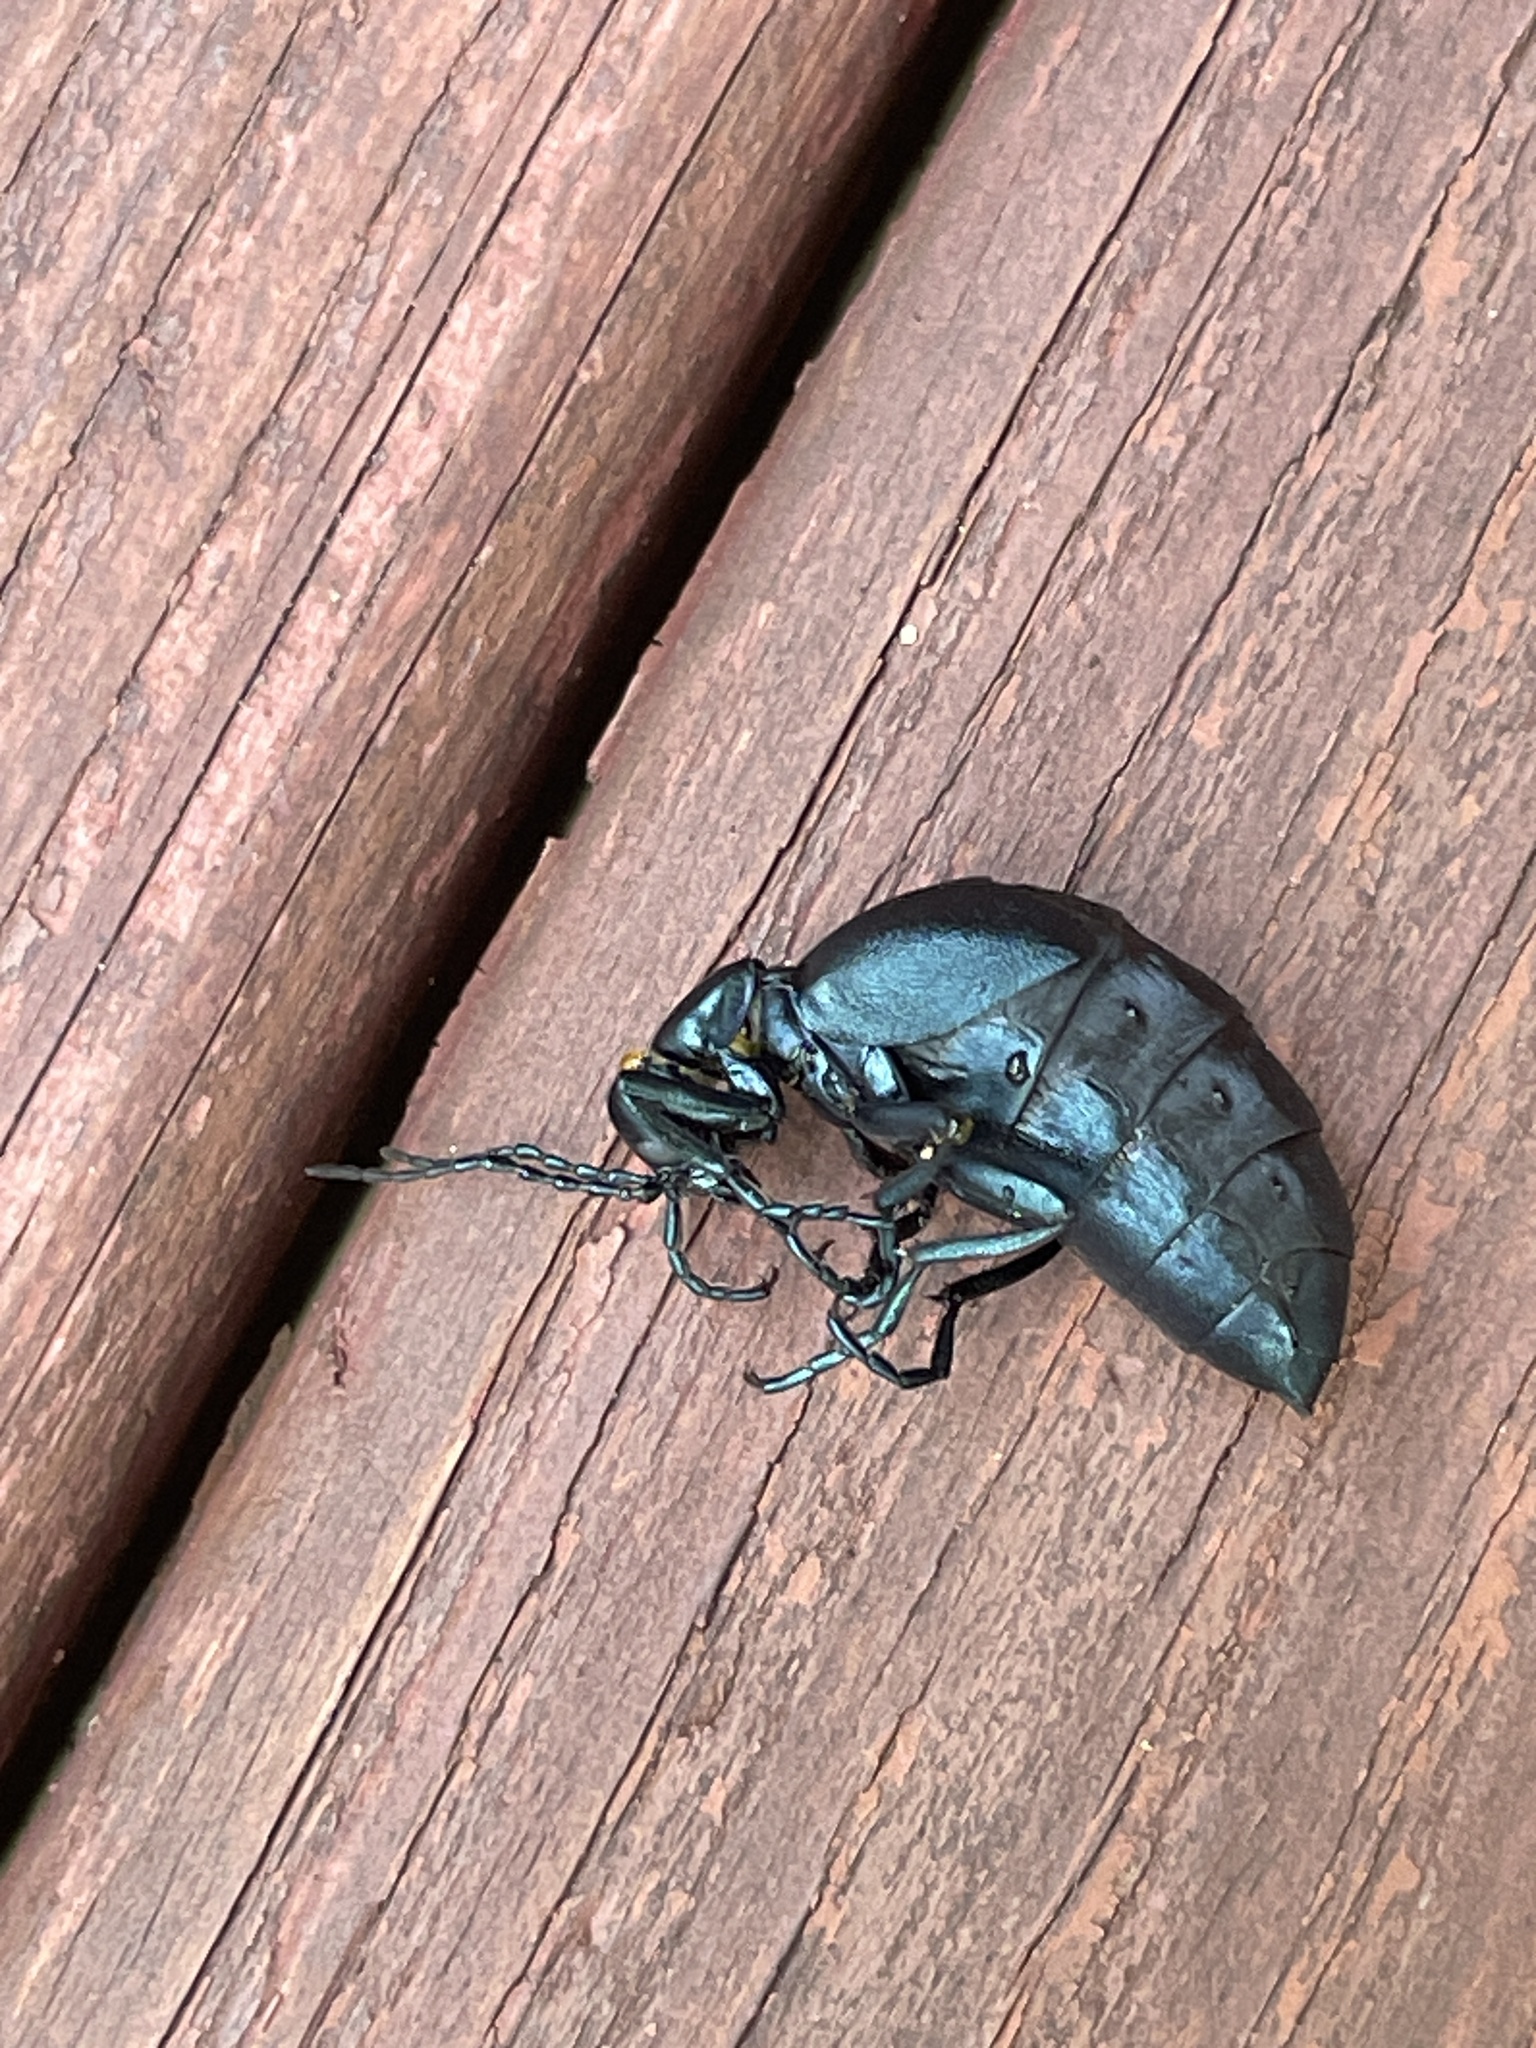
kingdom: Animalia
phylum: Arthropoda
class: Insecta
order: Coleoptera
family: Meloidae
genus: Meloe
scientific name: Meloe impressus
